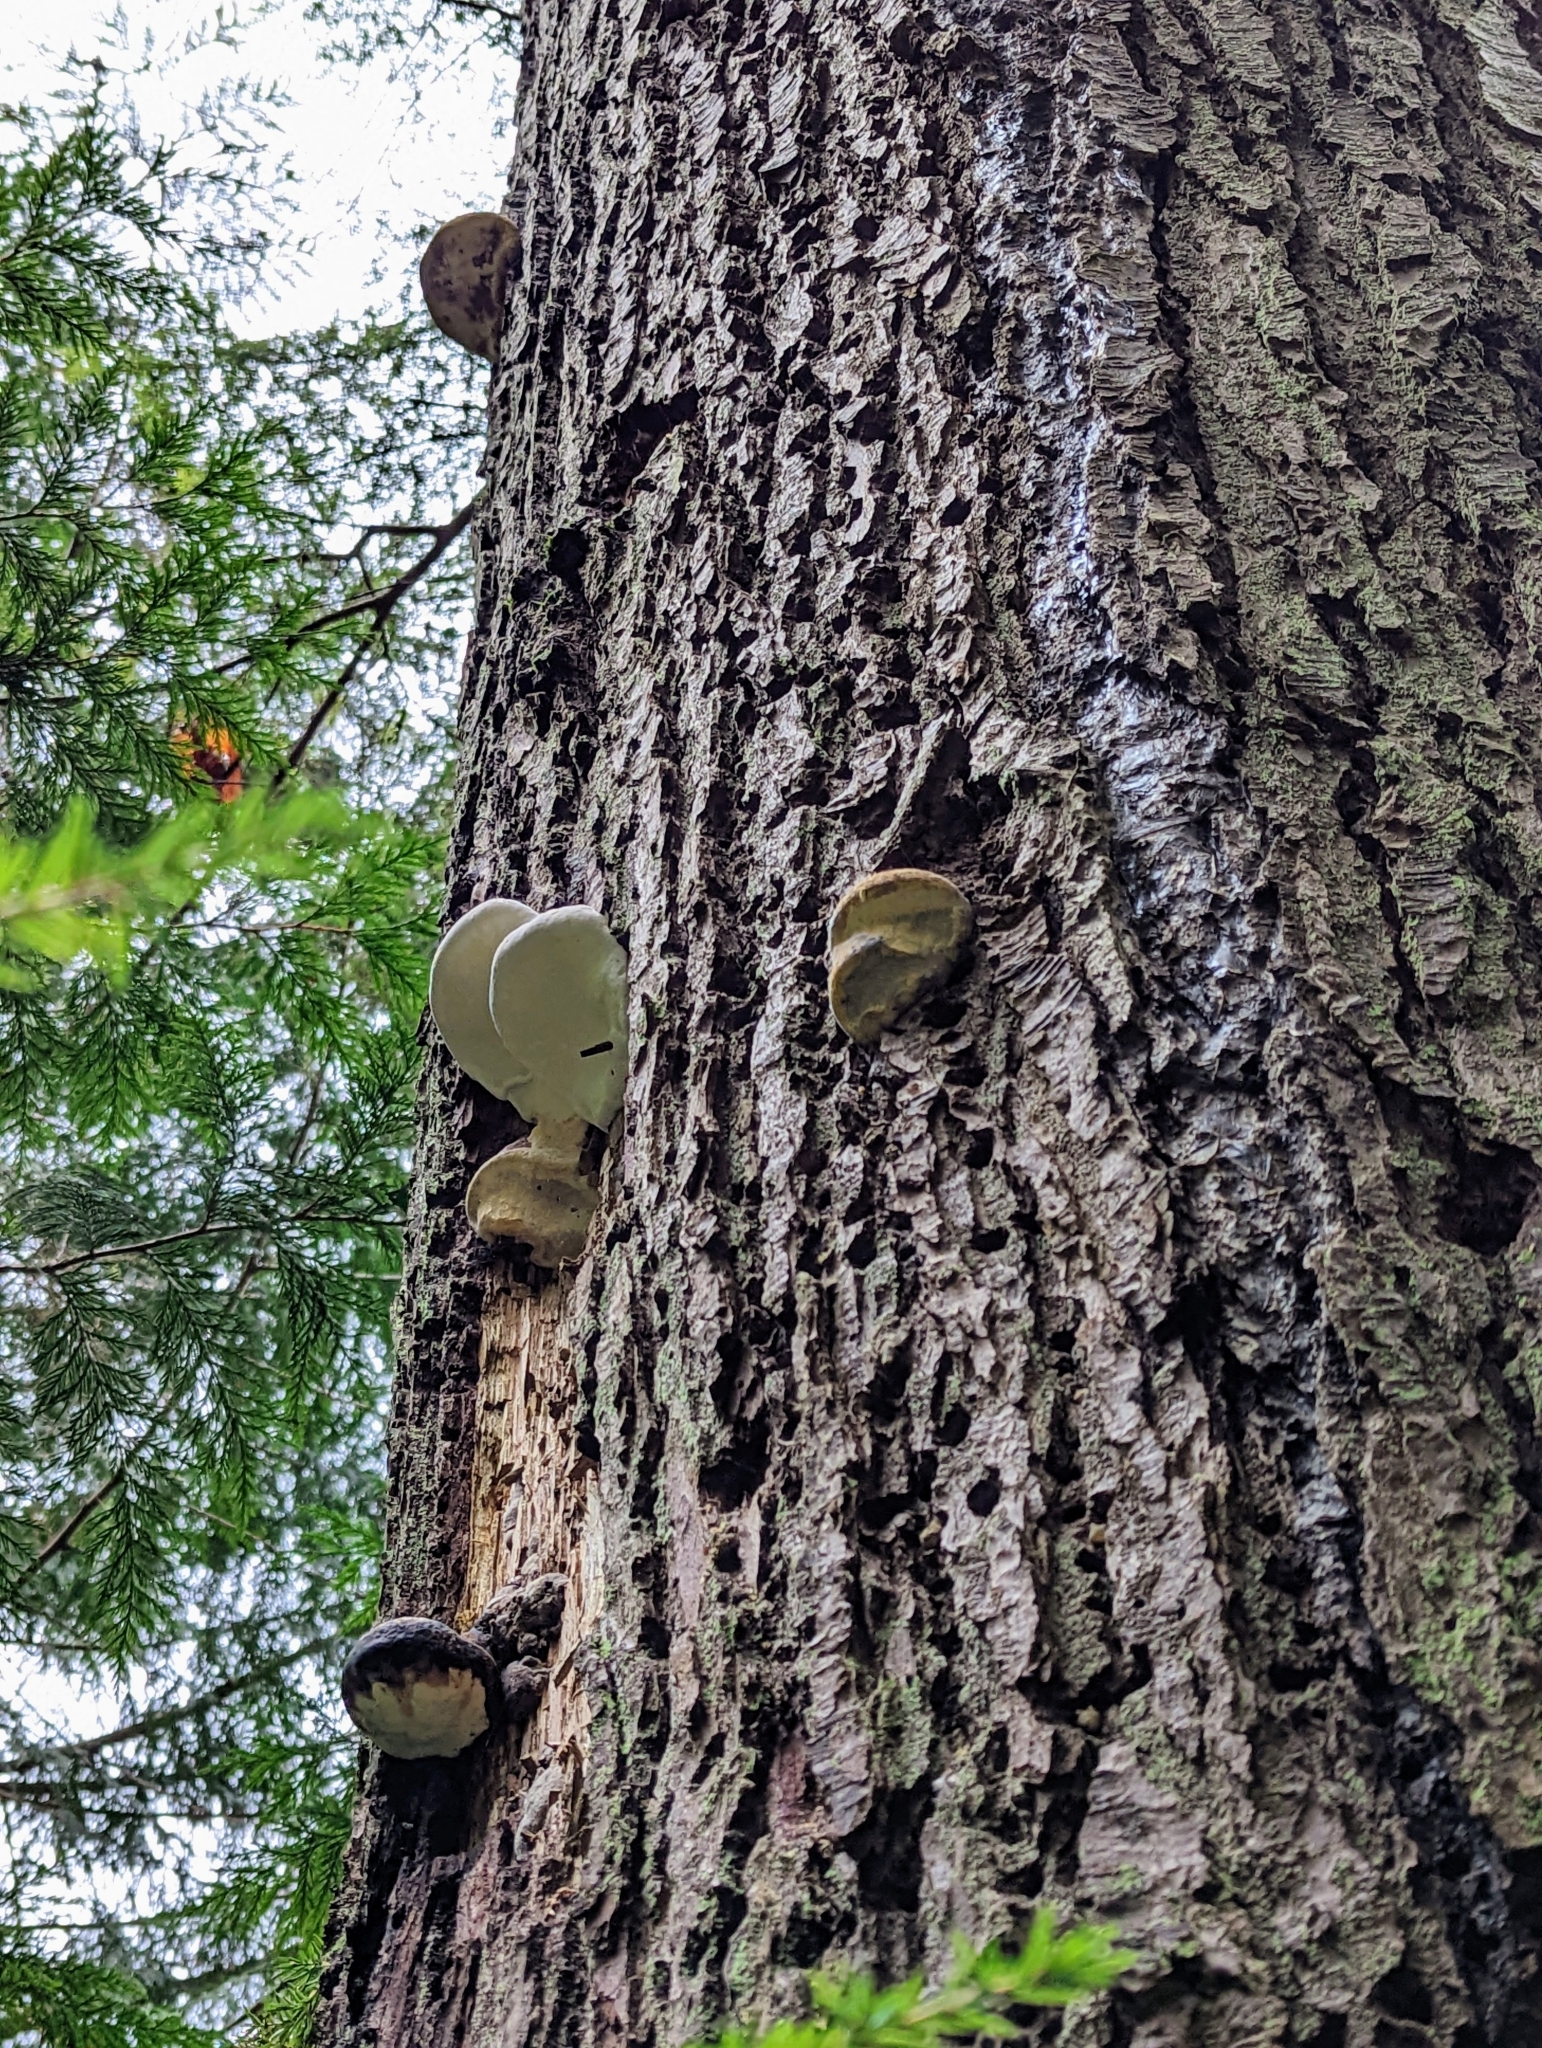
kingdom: Fungi
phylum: Basidiomycota
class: Agaricomycetes
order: Polyporales
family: Fomitopsidaceae
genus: Fomitopsis
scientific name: Fomitopsis mounceae
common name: Northern red belt
